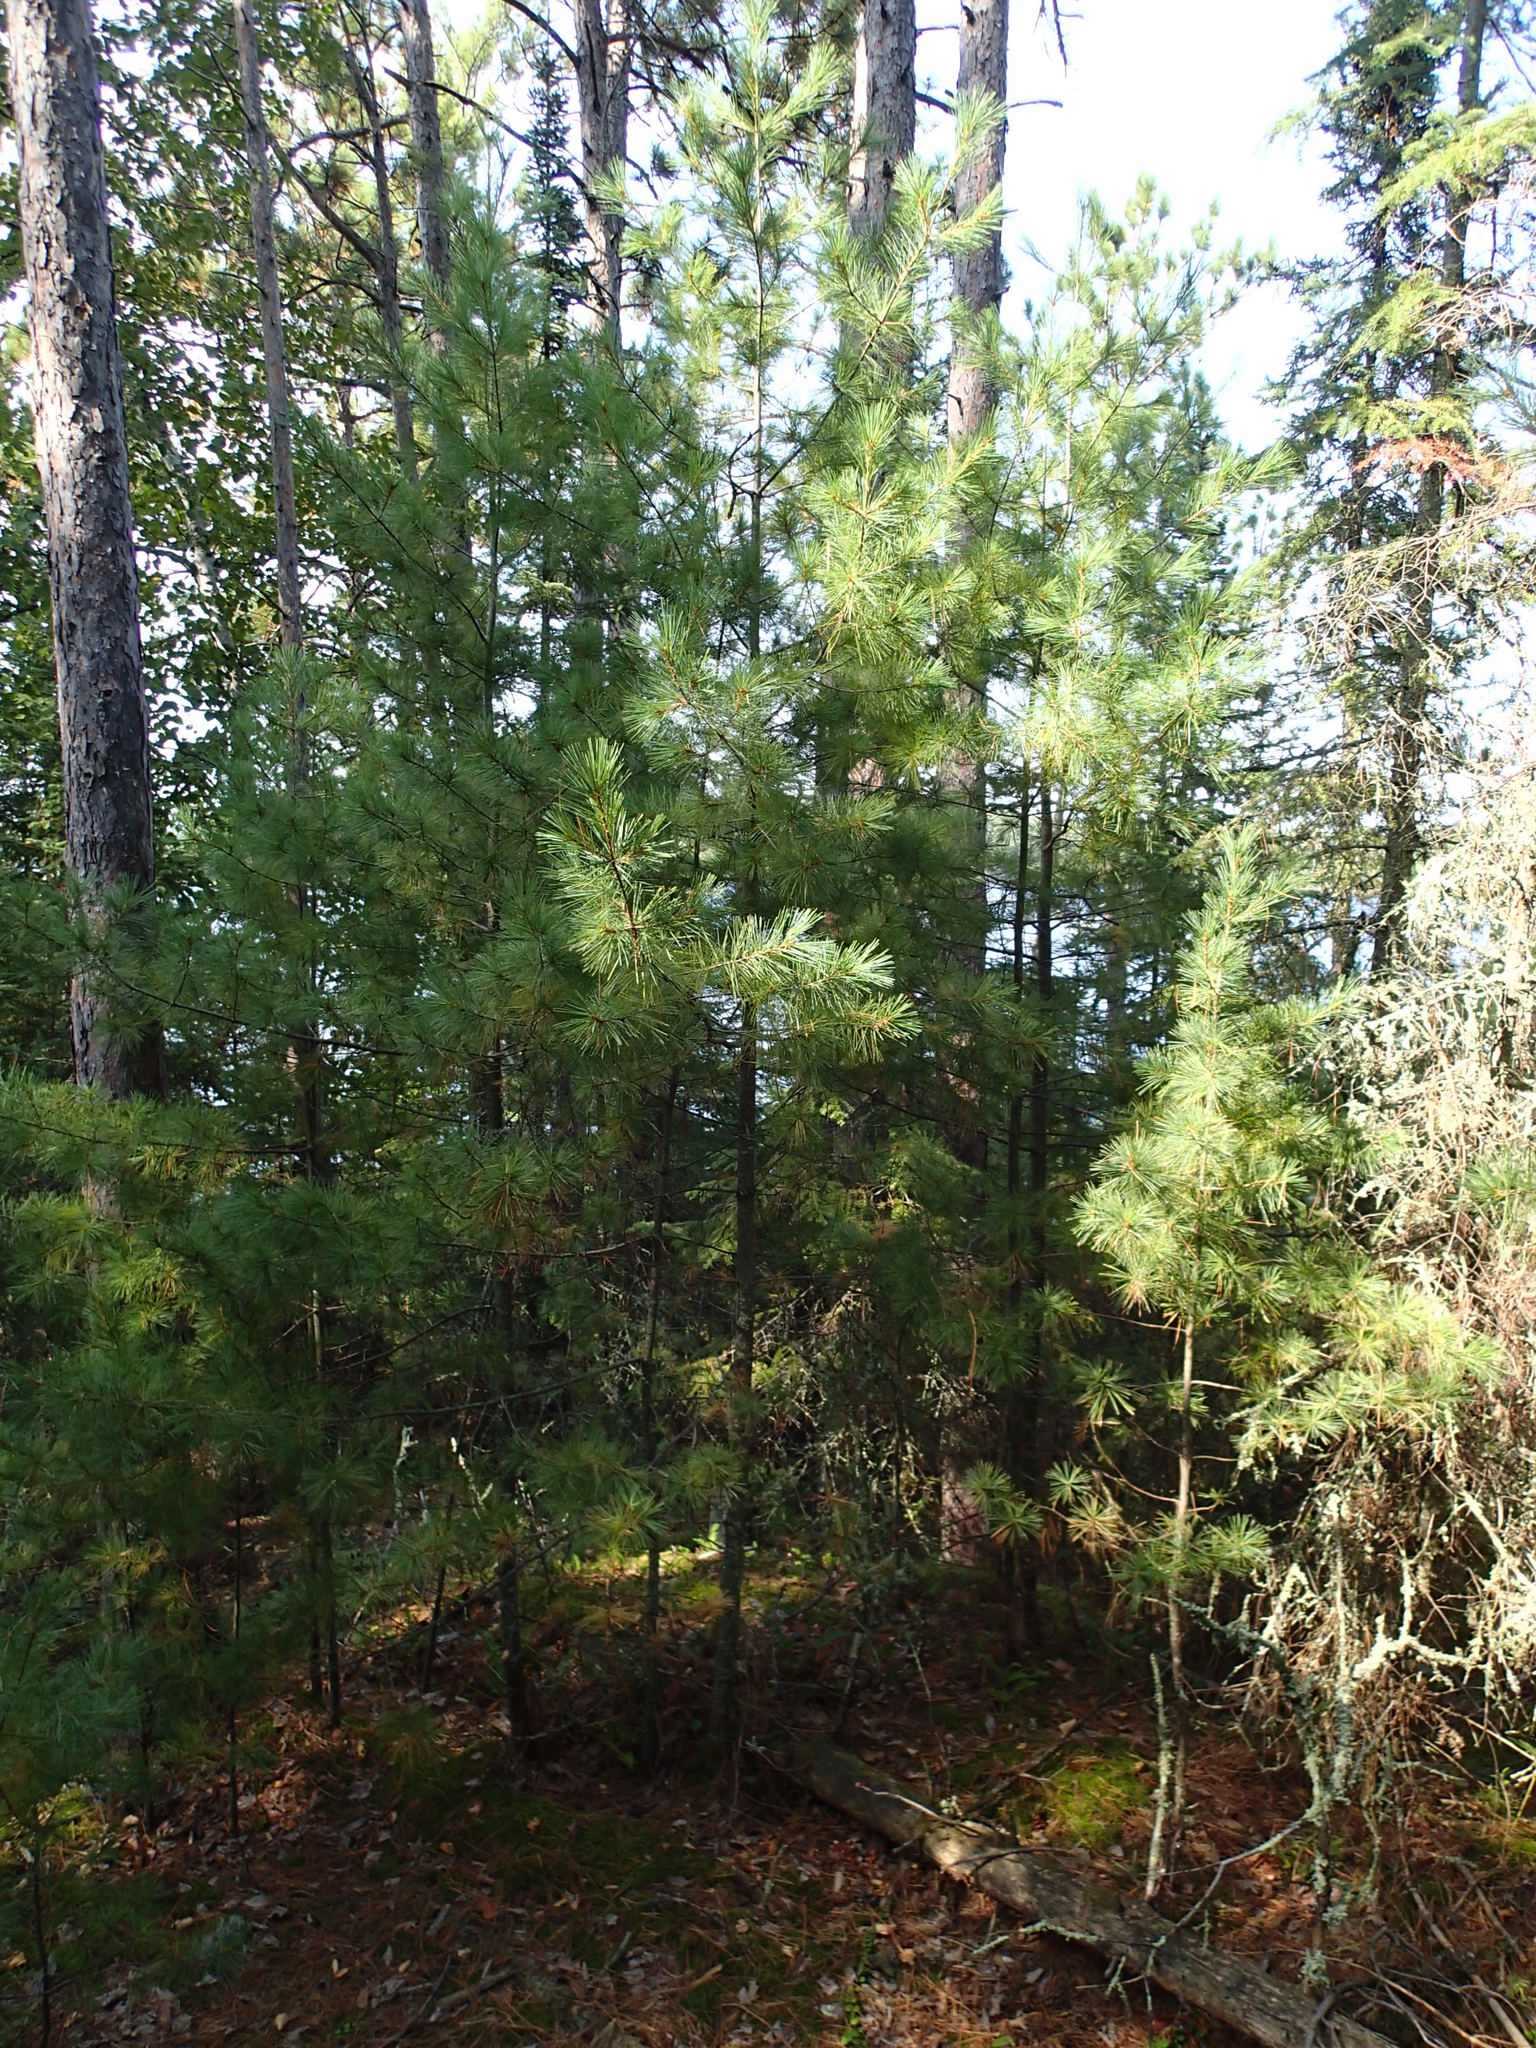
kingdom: Plantae
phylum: Tracheophyta
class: Pinopsida
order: Pinales
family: Pinaceae
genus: Pinus
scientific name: Pinus strobus
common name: Weymouth pine
